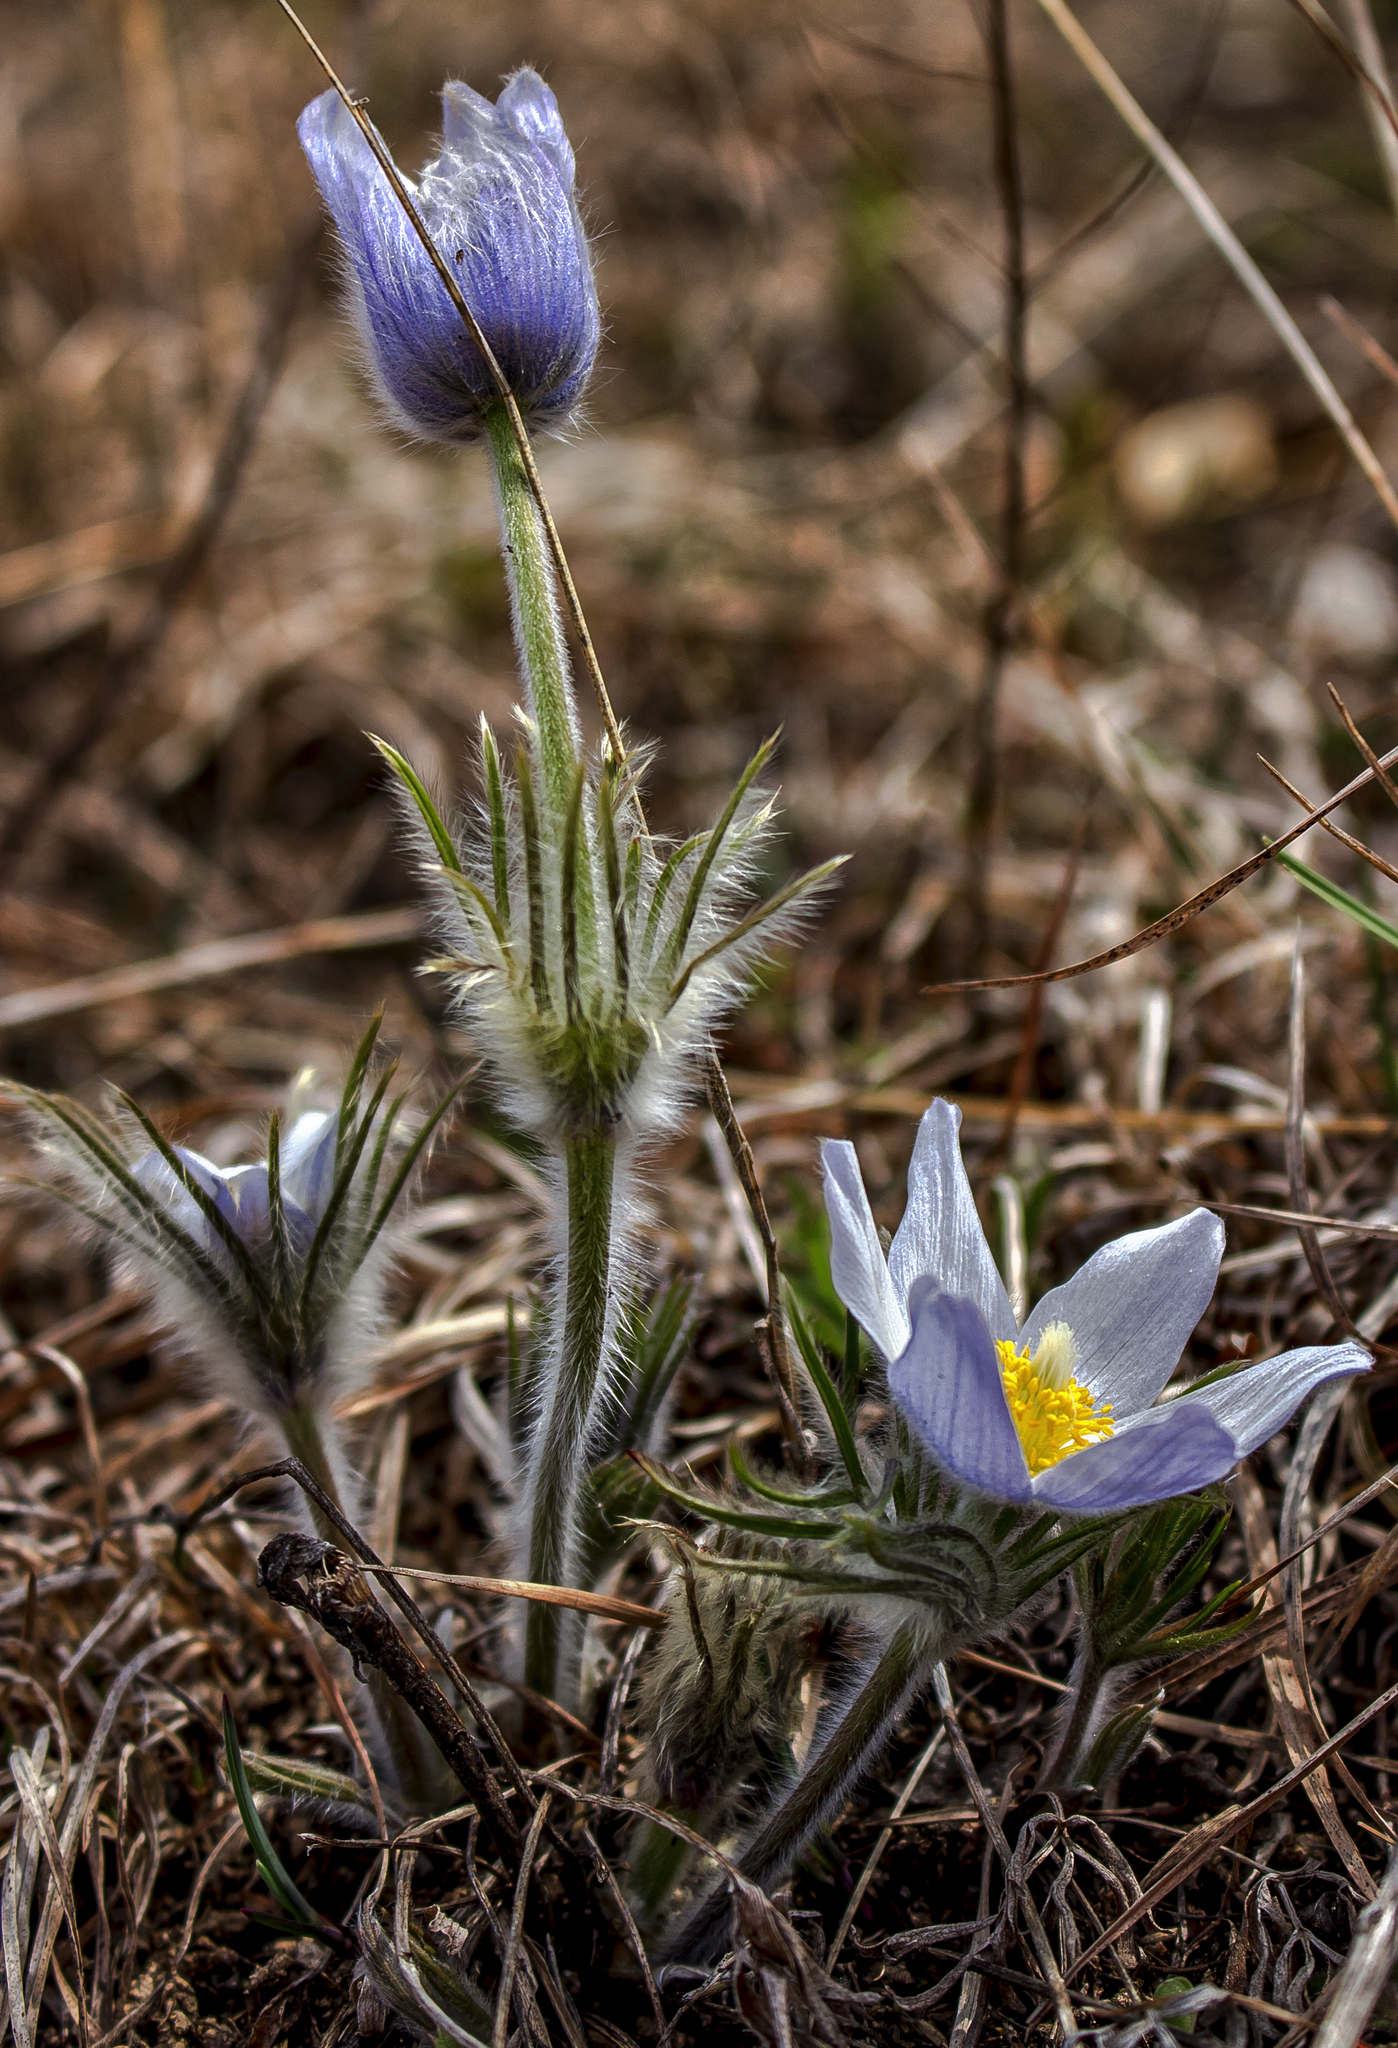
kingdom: Plantae
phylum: Tracheophyta
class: Magnoliopsida
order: Ranunculales
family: Ranunculaceae
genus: Pulsatilla
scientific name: Pulsatilla nuttalliana
